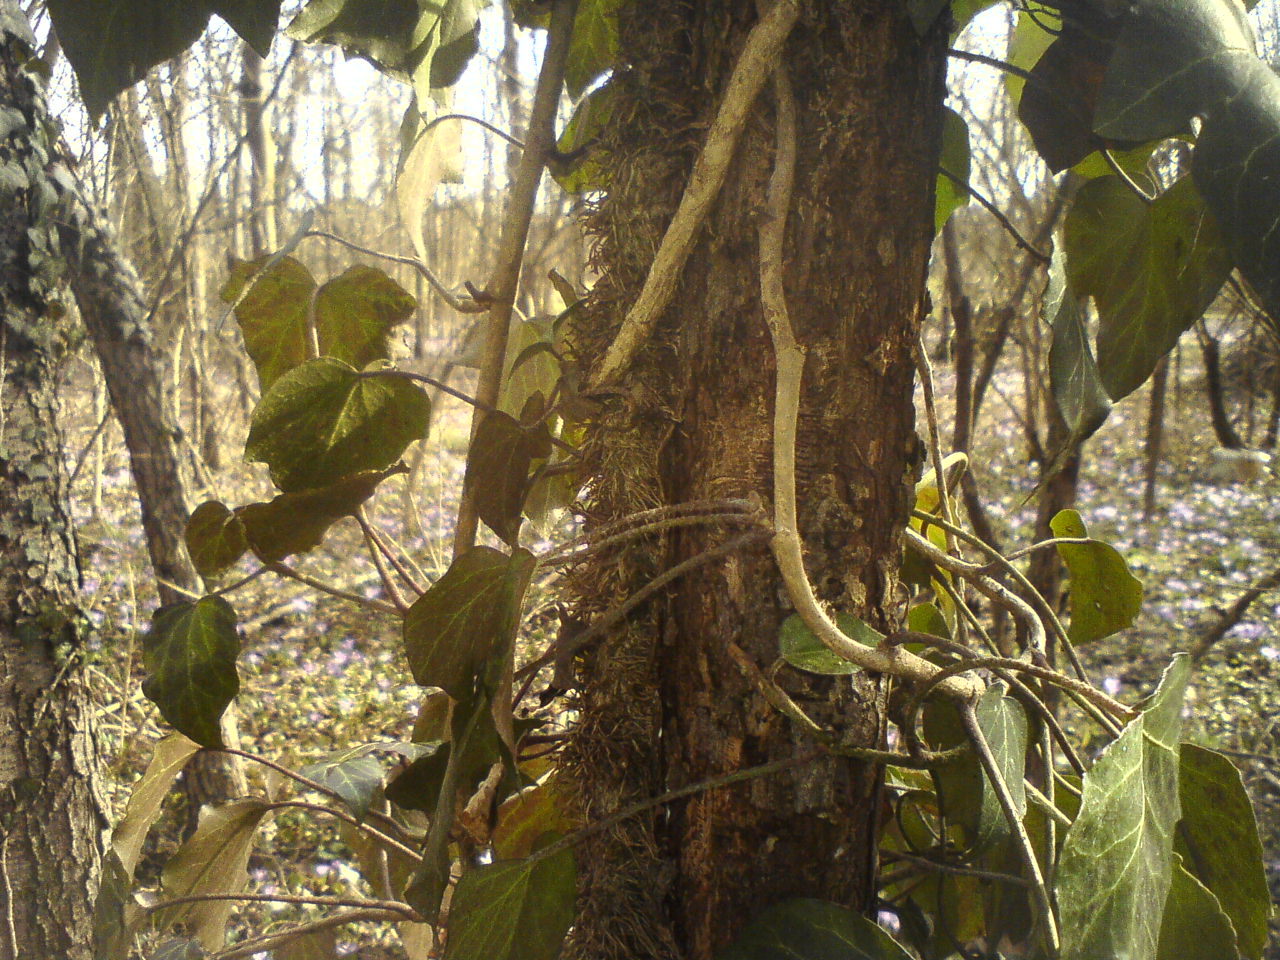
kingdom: Plantae
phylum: Tracheophyta
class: Magnoliopsida
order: Apiales
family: Araliaceae
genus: Hedera
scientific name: Hedera helix
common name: Ivy
